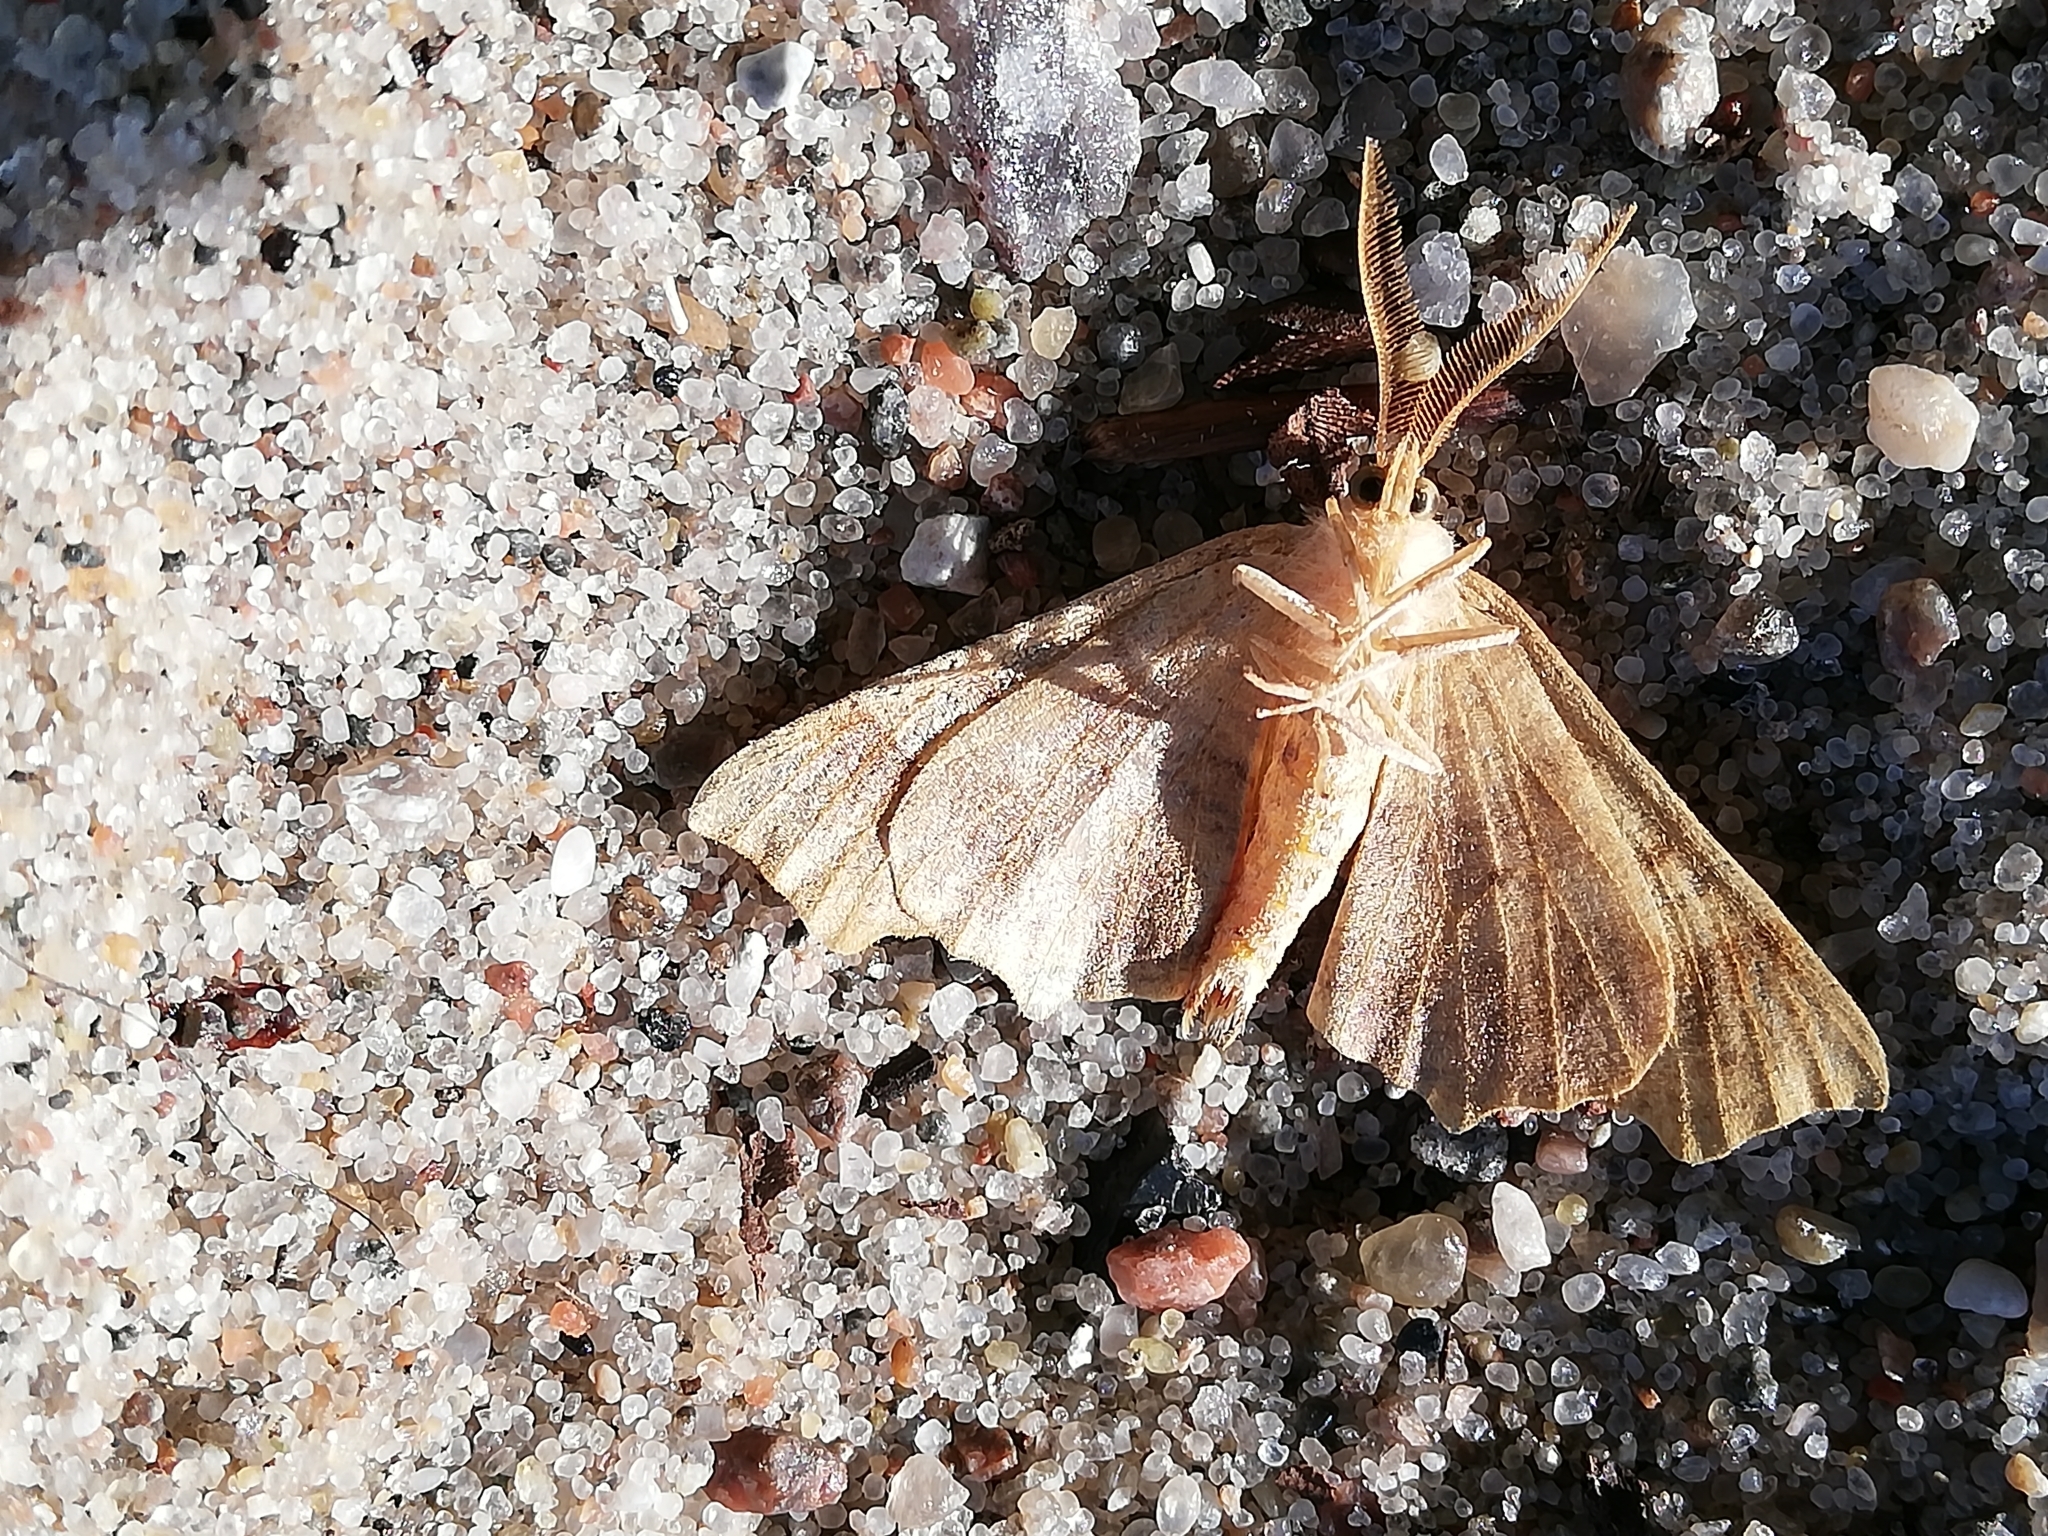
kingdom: Animalia
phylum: Arthropoda
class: Insecta
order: Lepidoptera
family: Geometridae
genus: Ennomos
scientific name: Ennomos quercinaria
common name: August thorn
